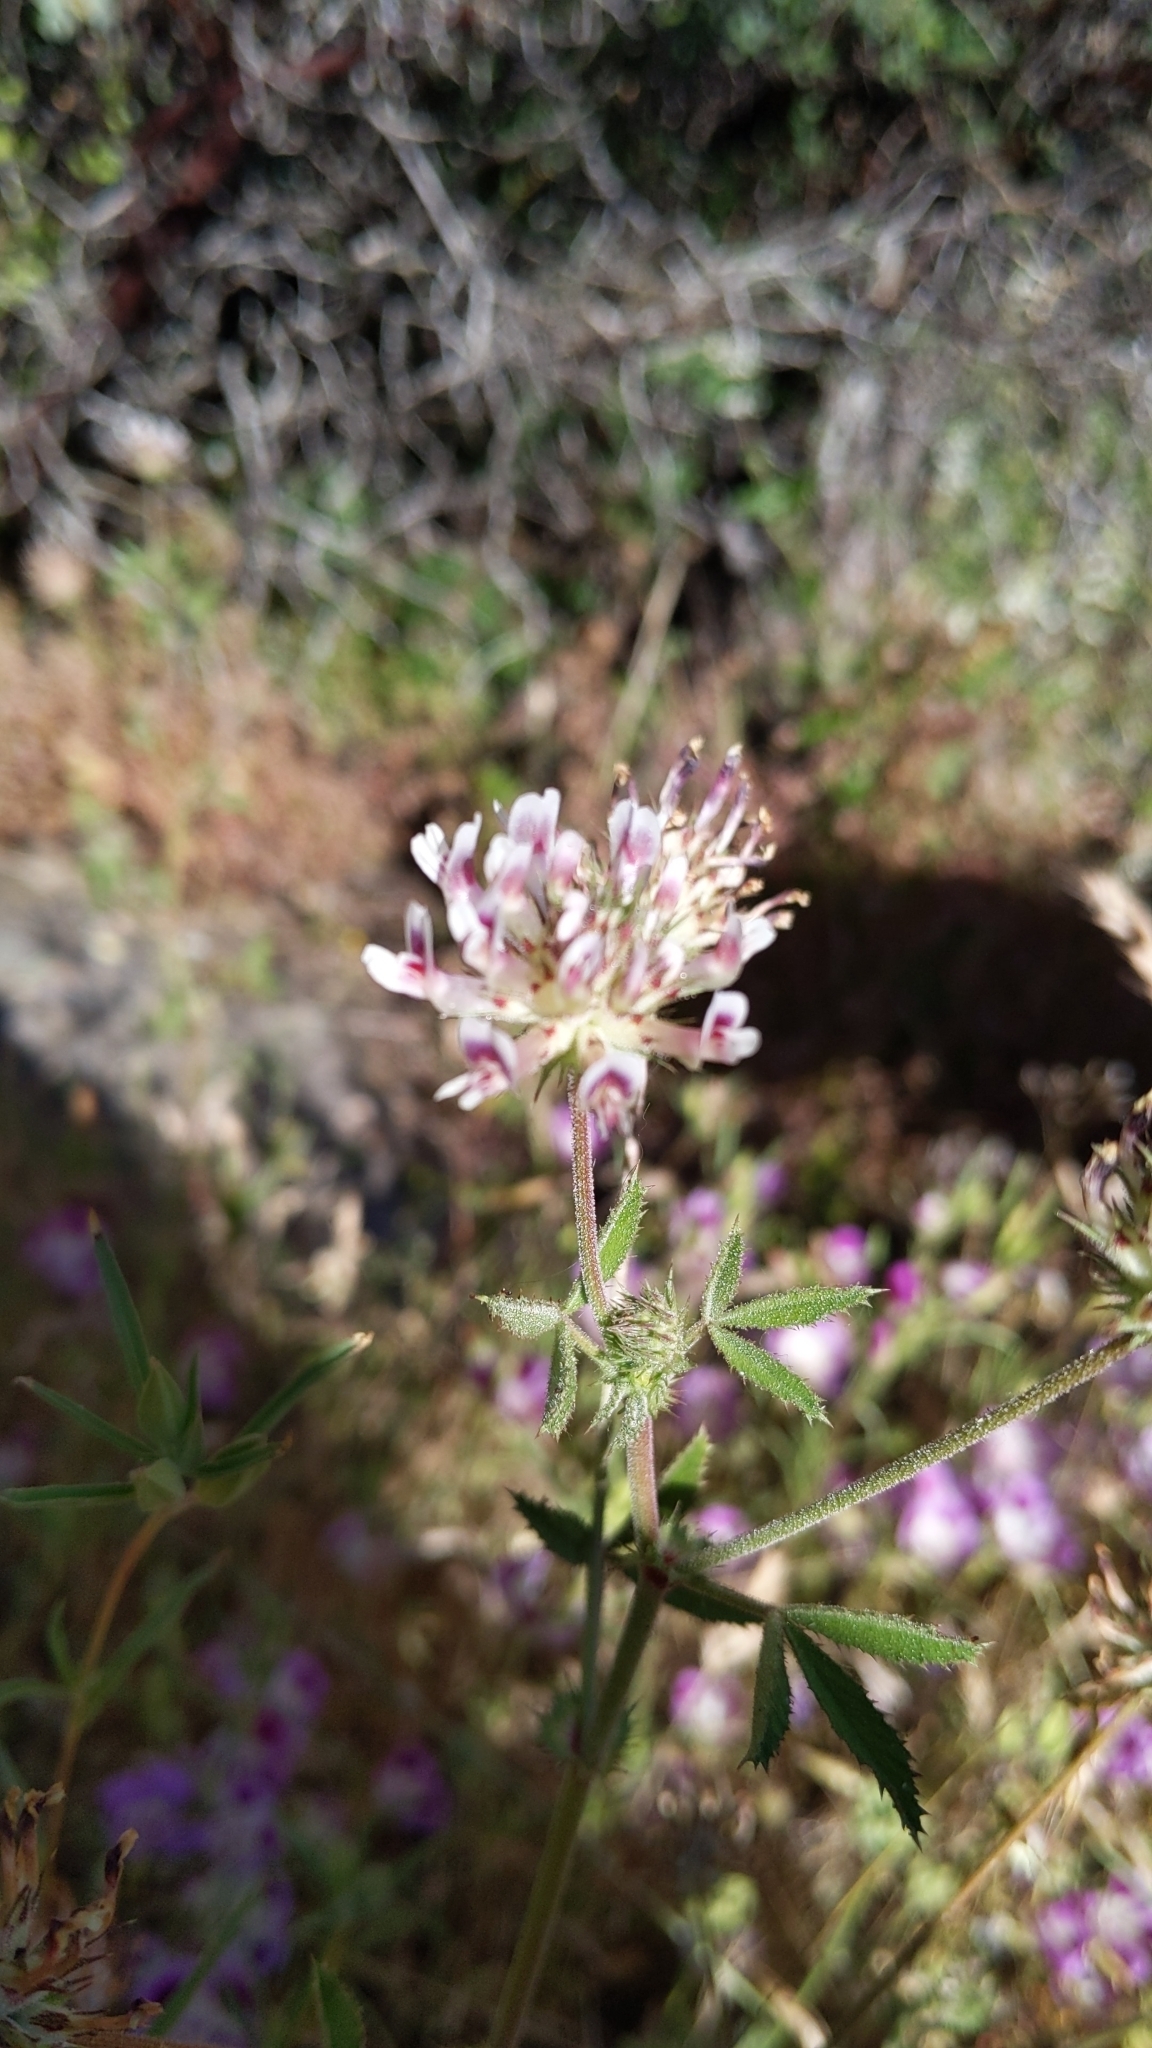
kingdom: Plantae
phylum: Tracheophyta
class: Magnoliopsida
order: Fabales
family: Fabaceae
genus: Trifolium
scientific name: Trifolium obtusiflorum
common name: Clammy clover
